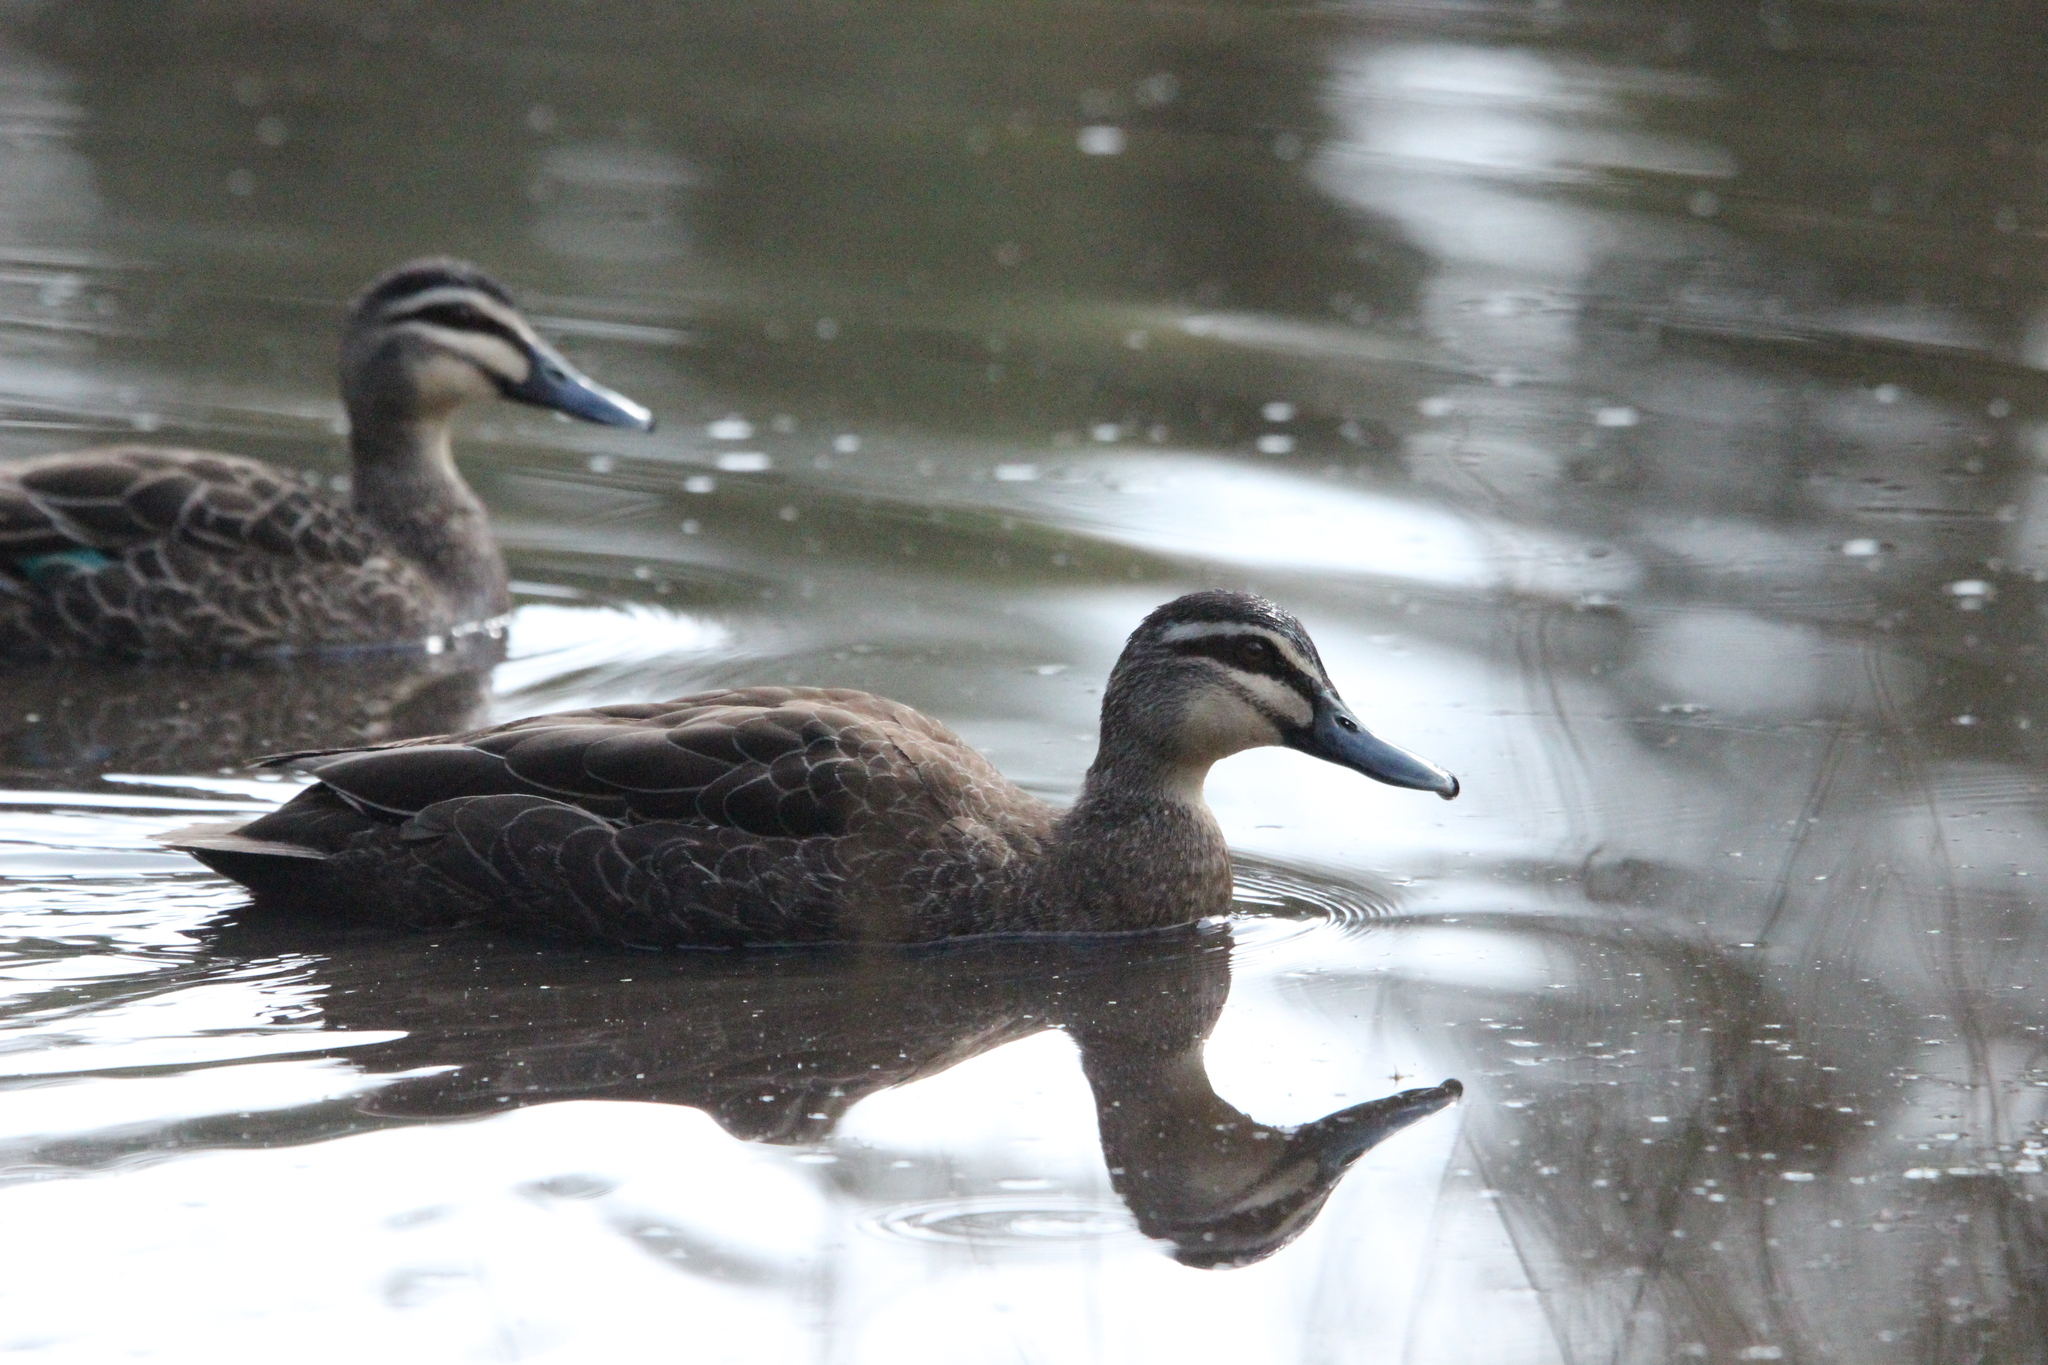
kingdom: Animalia
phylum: Chordata
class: Aves
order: Anseriformes
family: Anatidae
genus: Anas
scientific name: Anas superciliosa
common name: Pacific black duck
